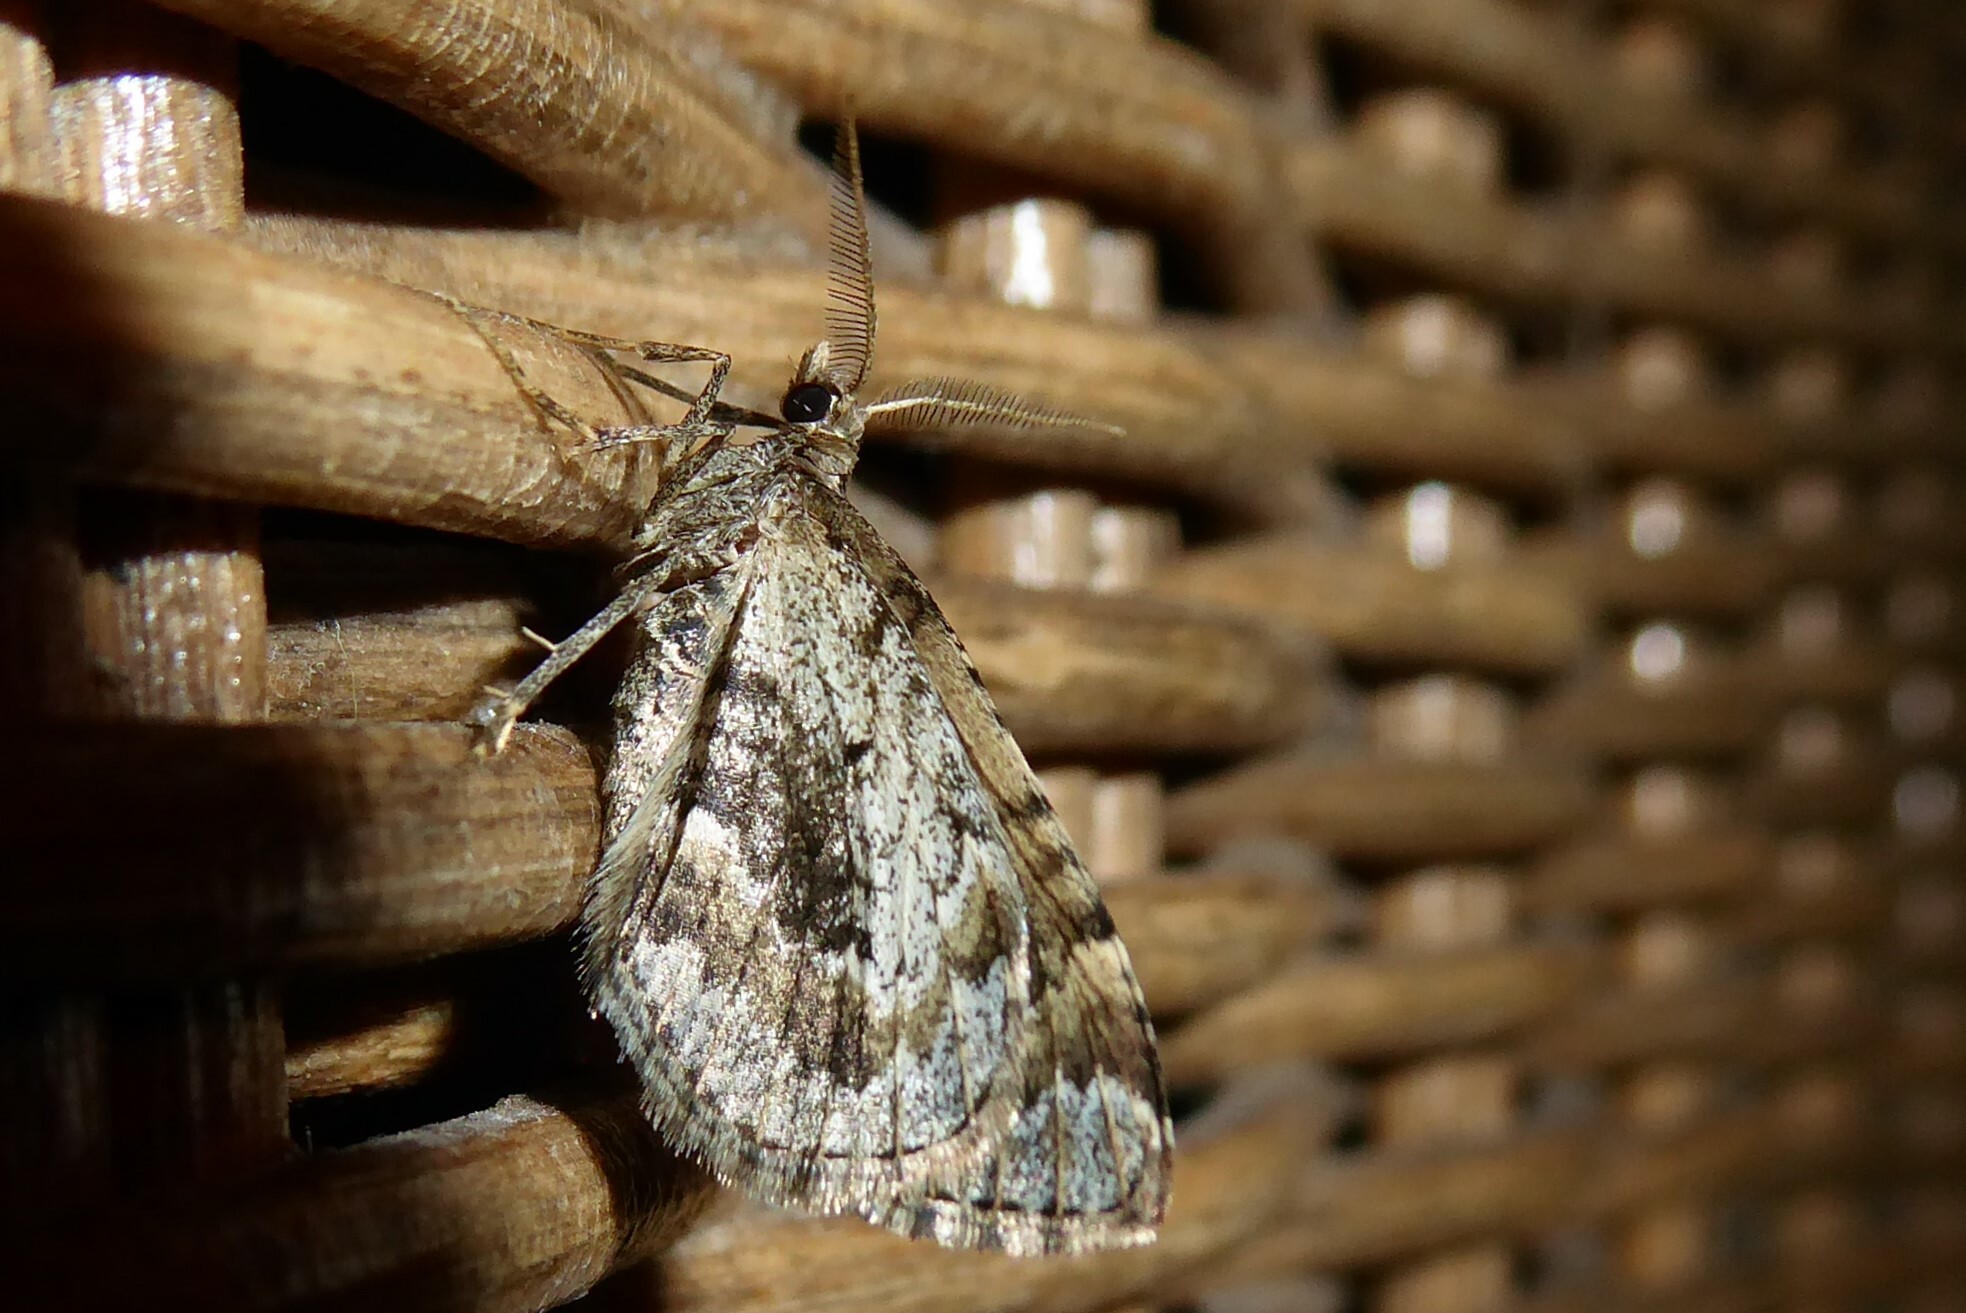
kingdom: Animalia
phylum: Arthropoda
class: Insecta
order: Lepidoptera
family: Geometridae
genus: Asaphodes
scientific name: Asaphodes aegrota
